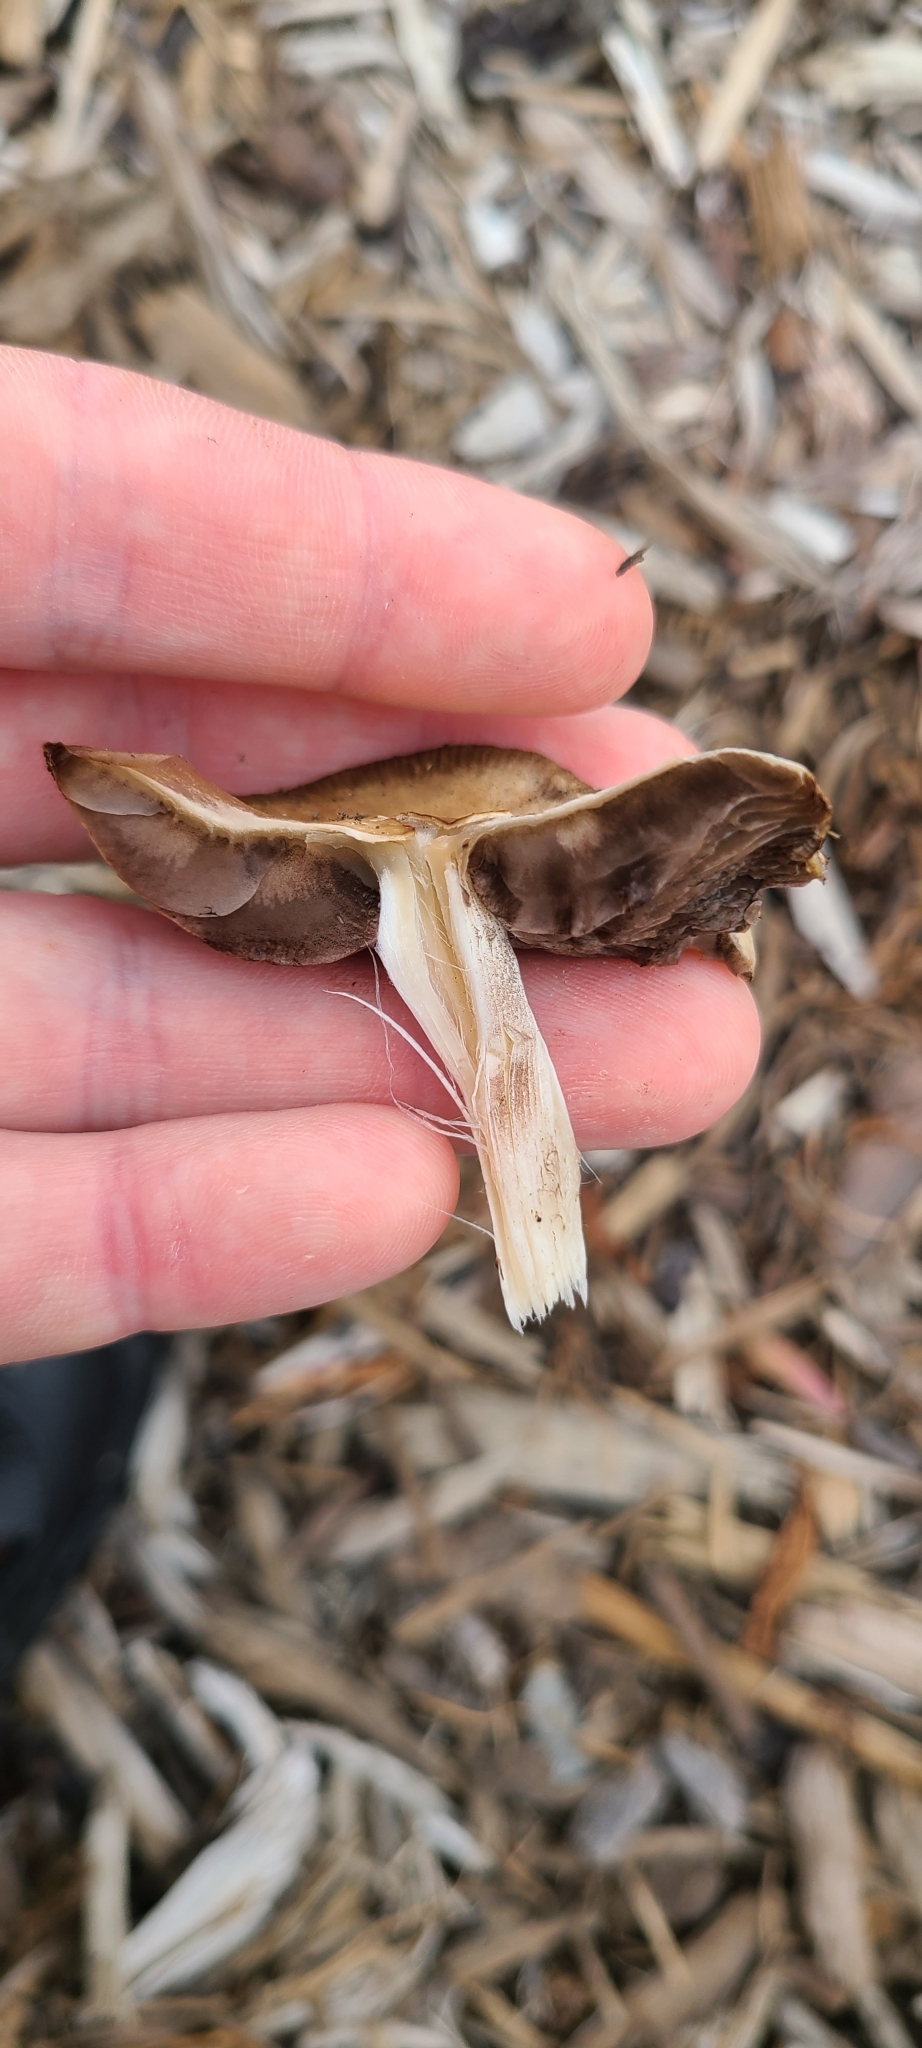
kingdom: Fungi
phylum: Basidiomycota
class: Agaricomycetes
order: Agaricales
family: Psathyrellaceae
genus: Candolleomyces
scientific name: Candolleomyces candolleanus
